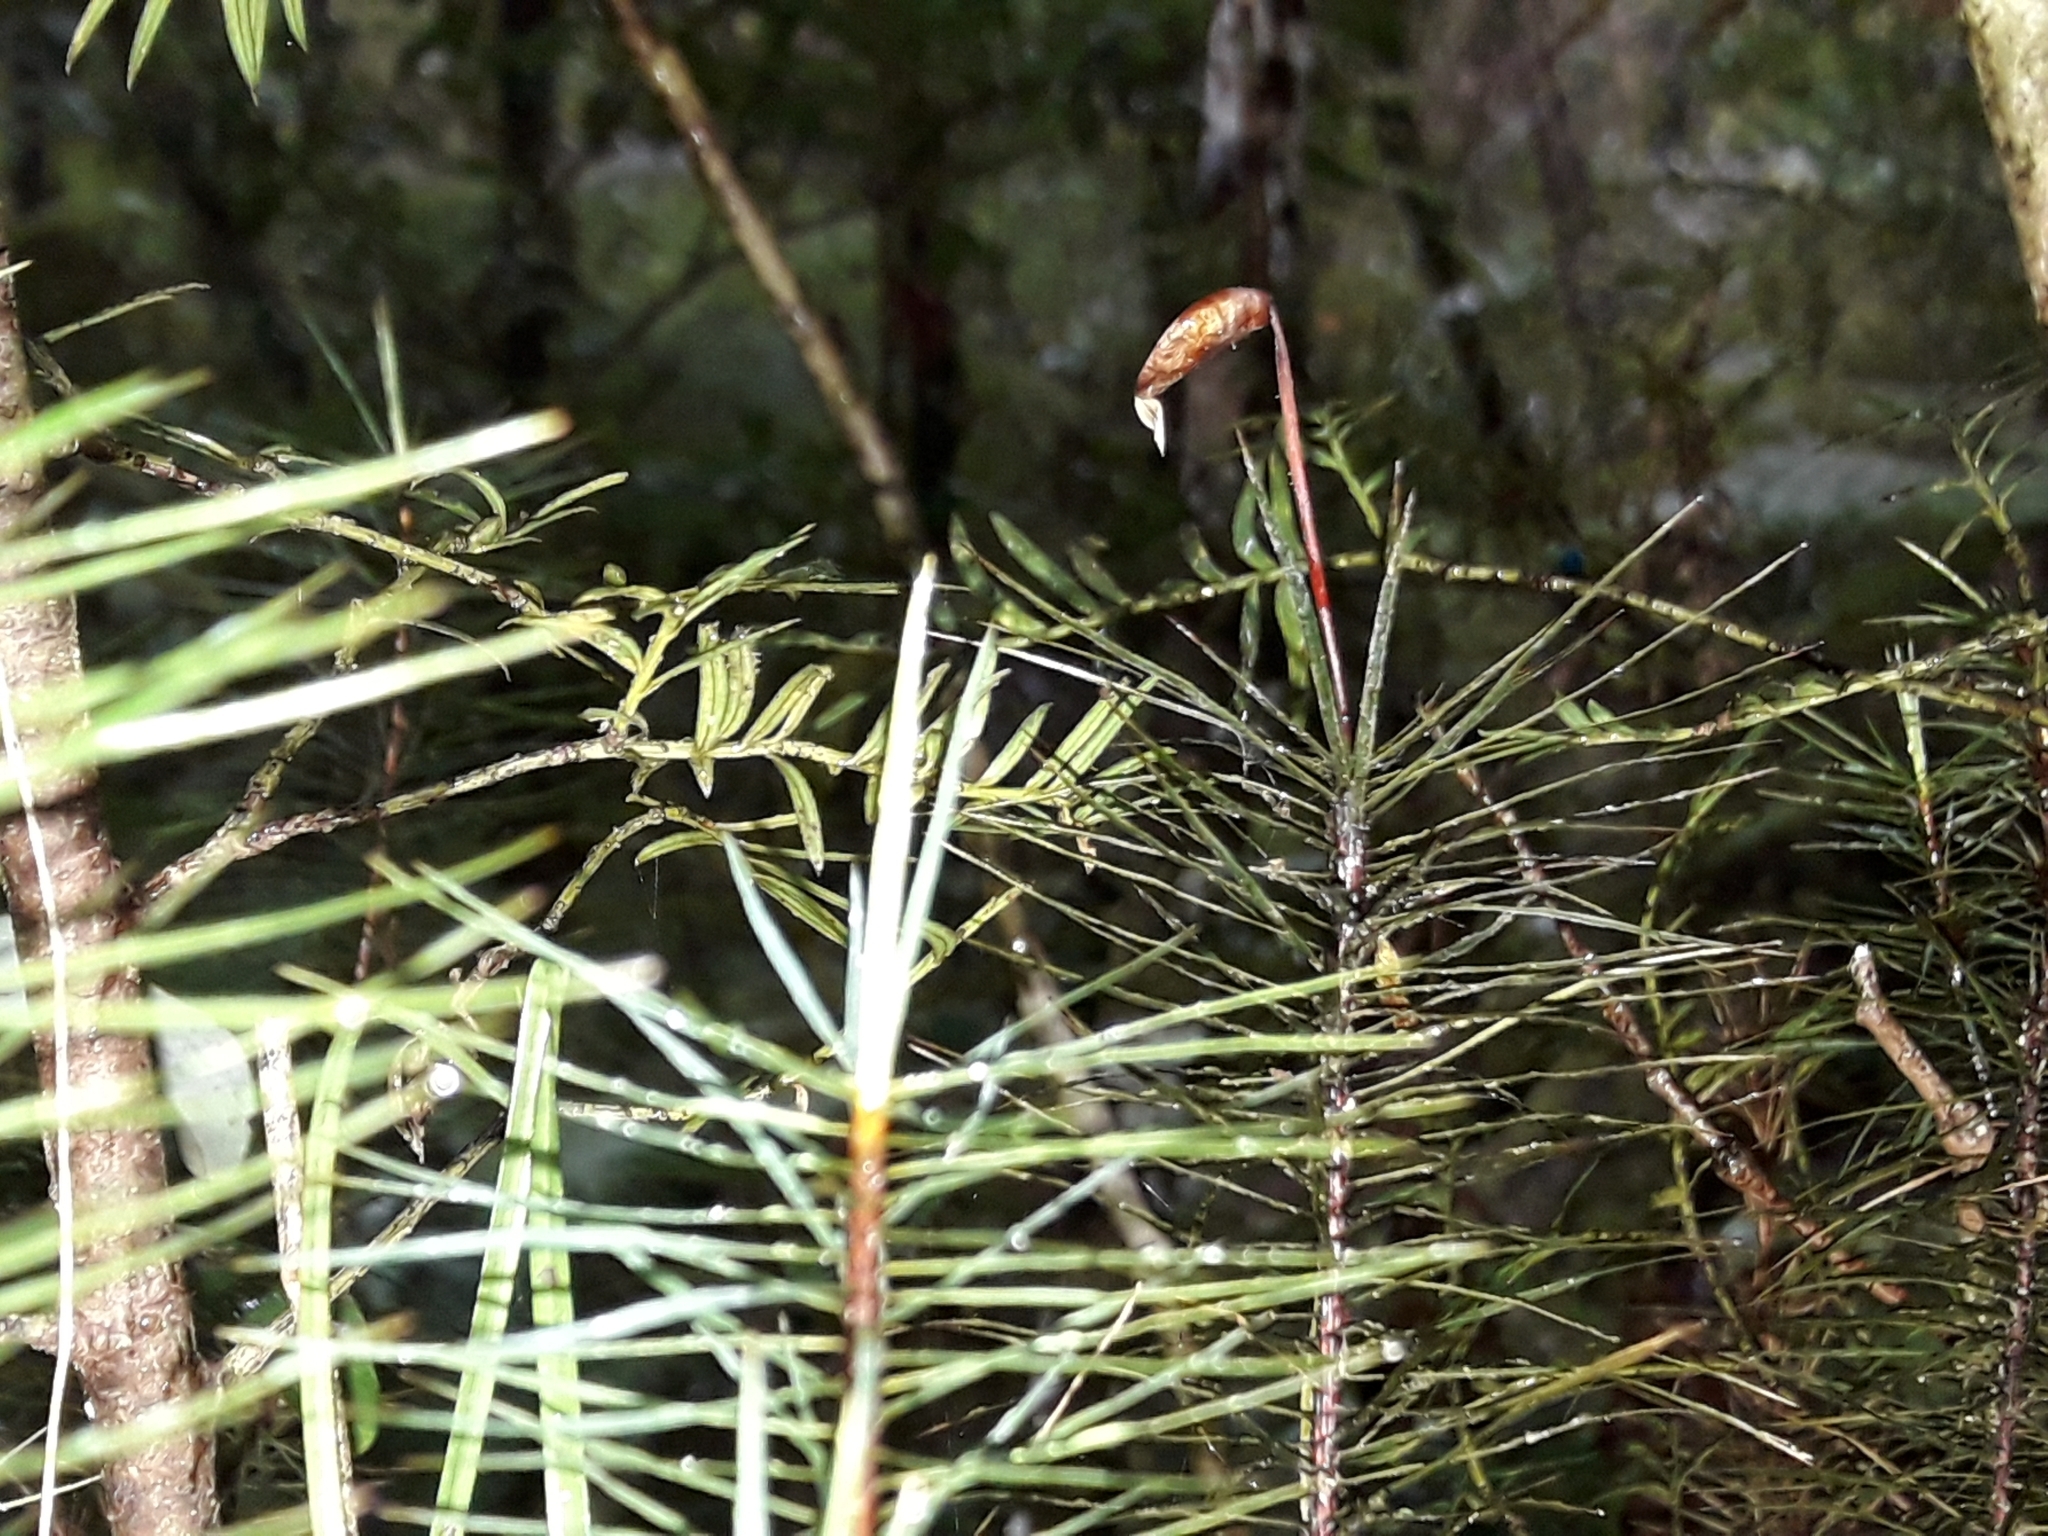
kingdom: Plantae
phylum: Bryophyta
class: Polytrichopsida
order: Polytrichales
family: Polytrichaceae
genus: Dawsonia
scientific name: Dawsonia superba
